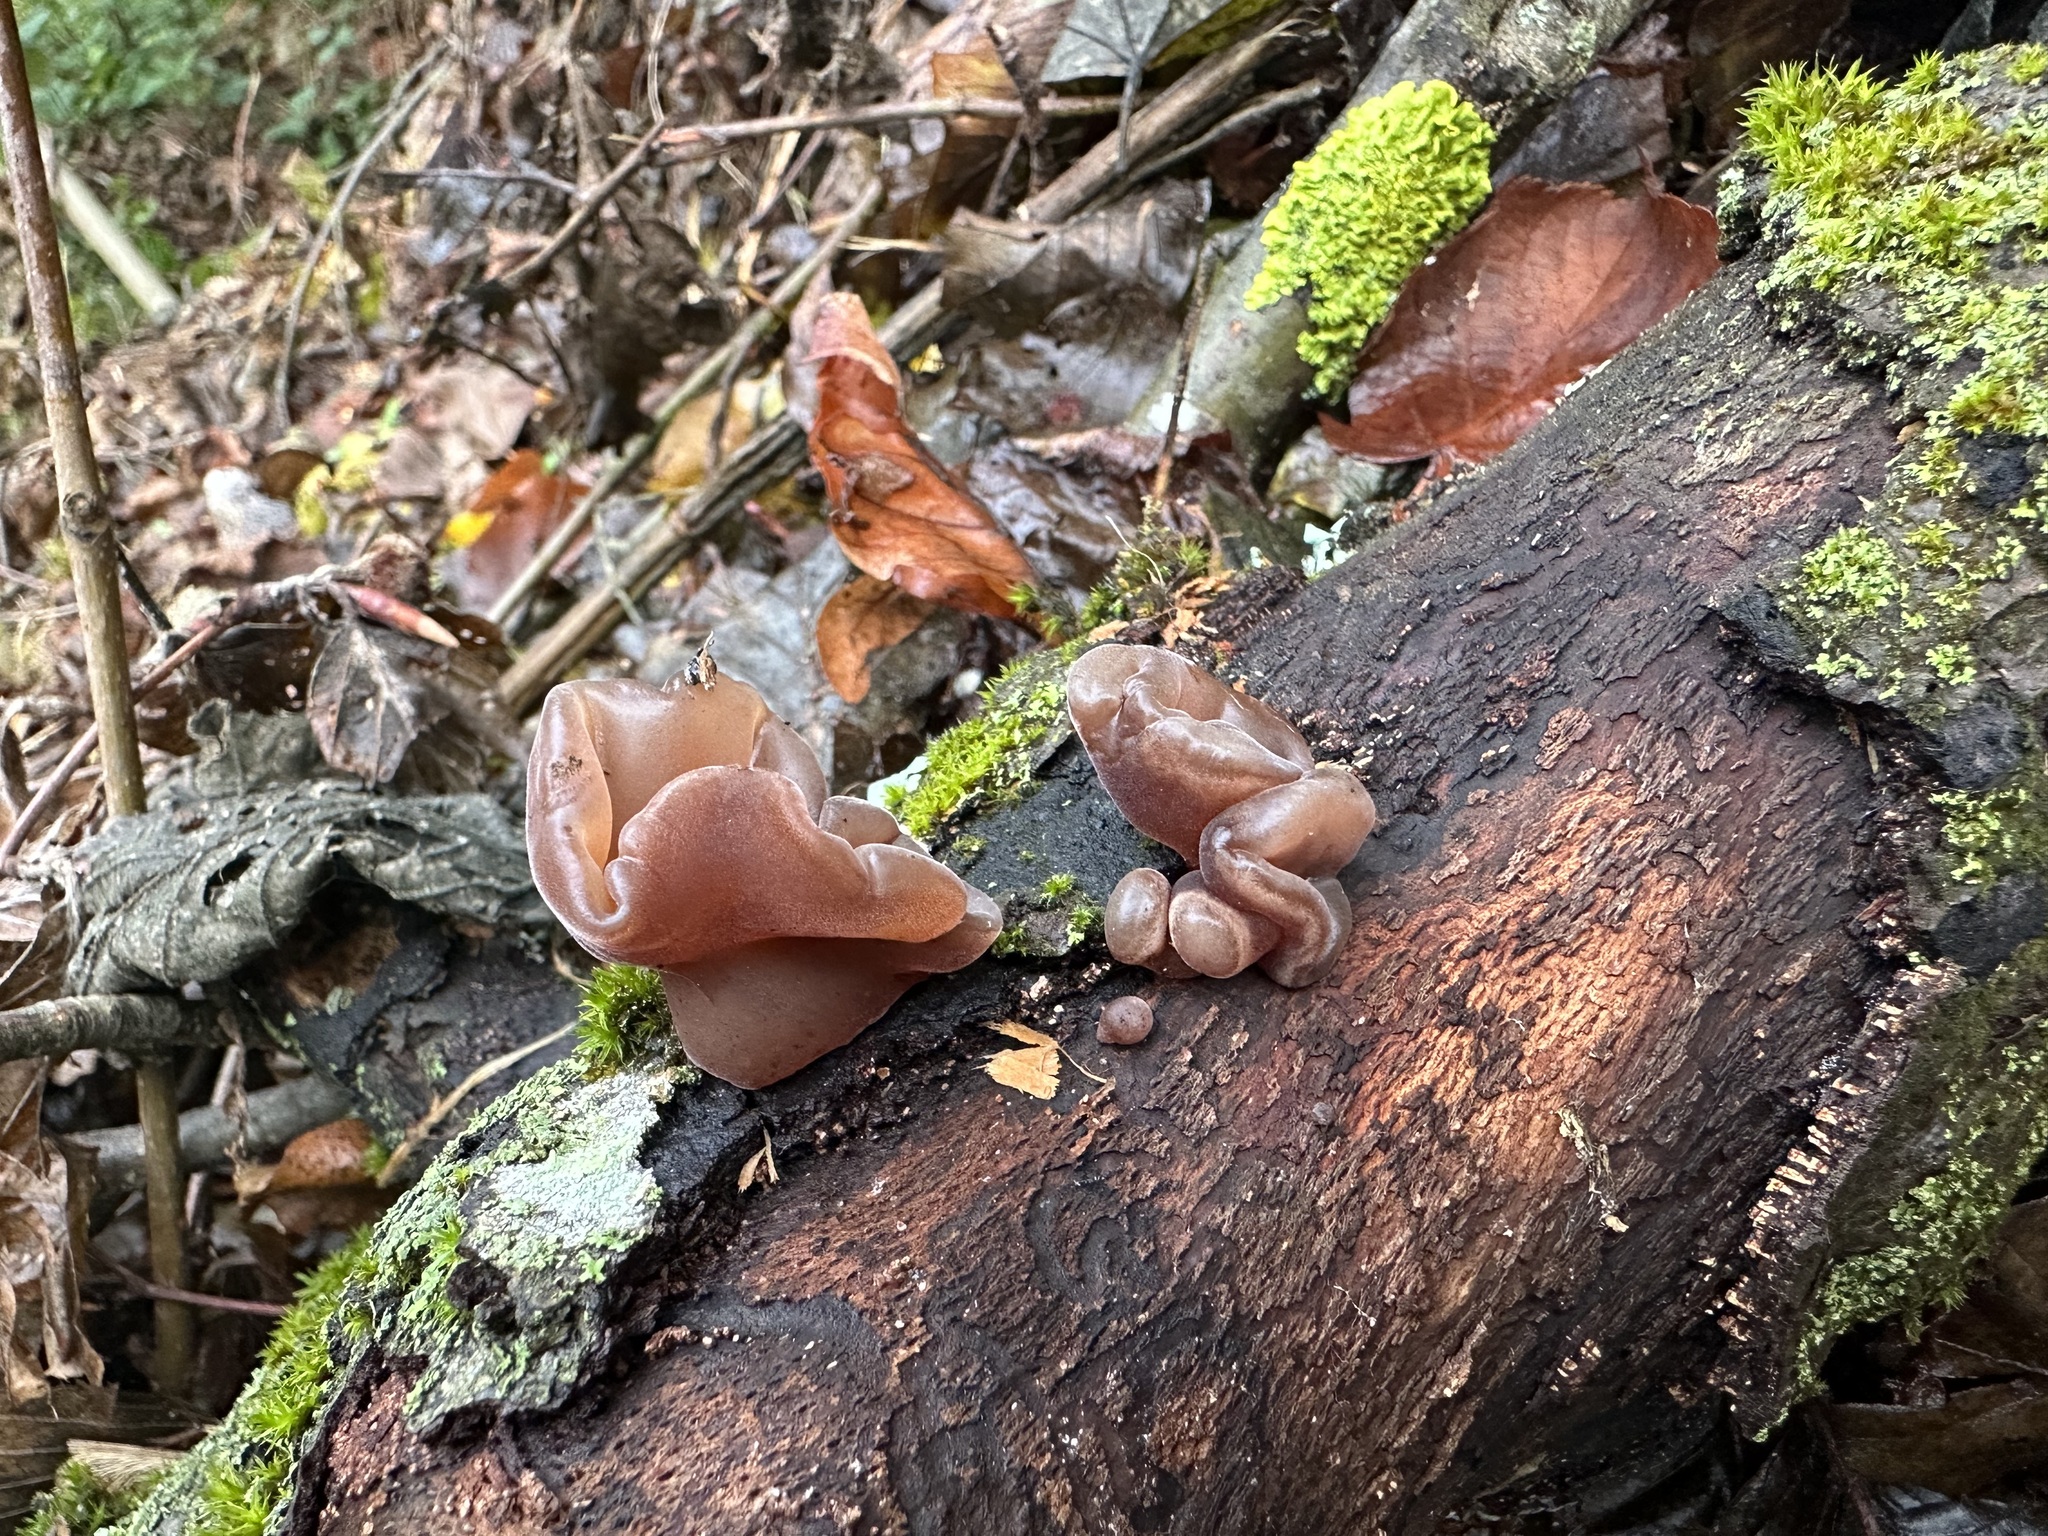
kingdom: Fungi
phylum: Basidiomycota
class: Agaricomycetes
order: Auriculariales
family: Auriculariaceae
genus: Auricularia
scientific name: Auricularia auricula-judae
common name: Jelly ear
